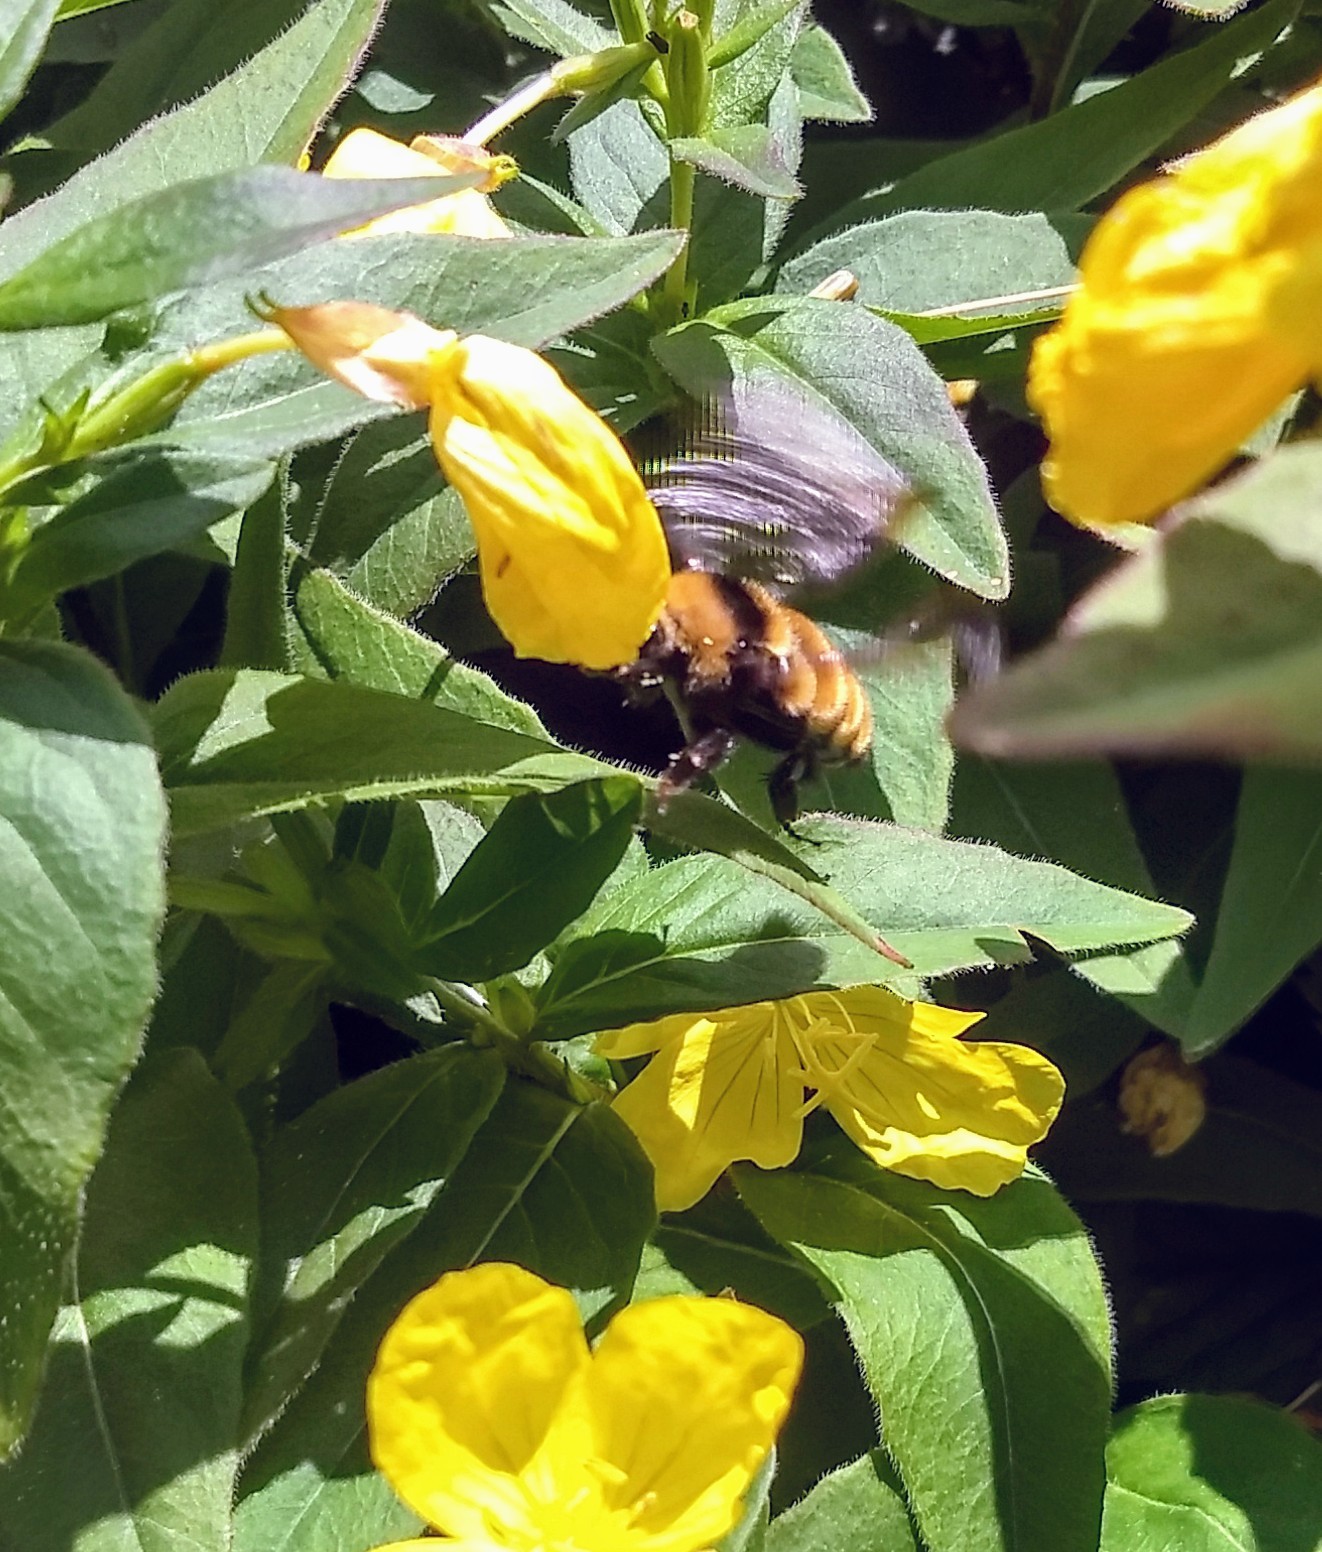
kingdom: Animalia
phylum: Arthropoda
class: Insecta
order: Hymenoptera
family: Apidae
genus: Bombus
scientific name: Bombus borealis
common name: Northern amber bumble bee
